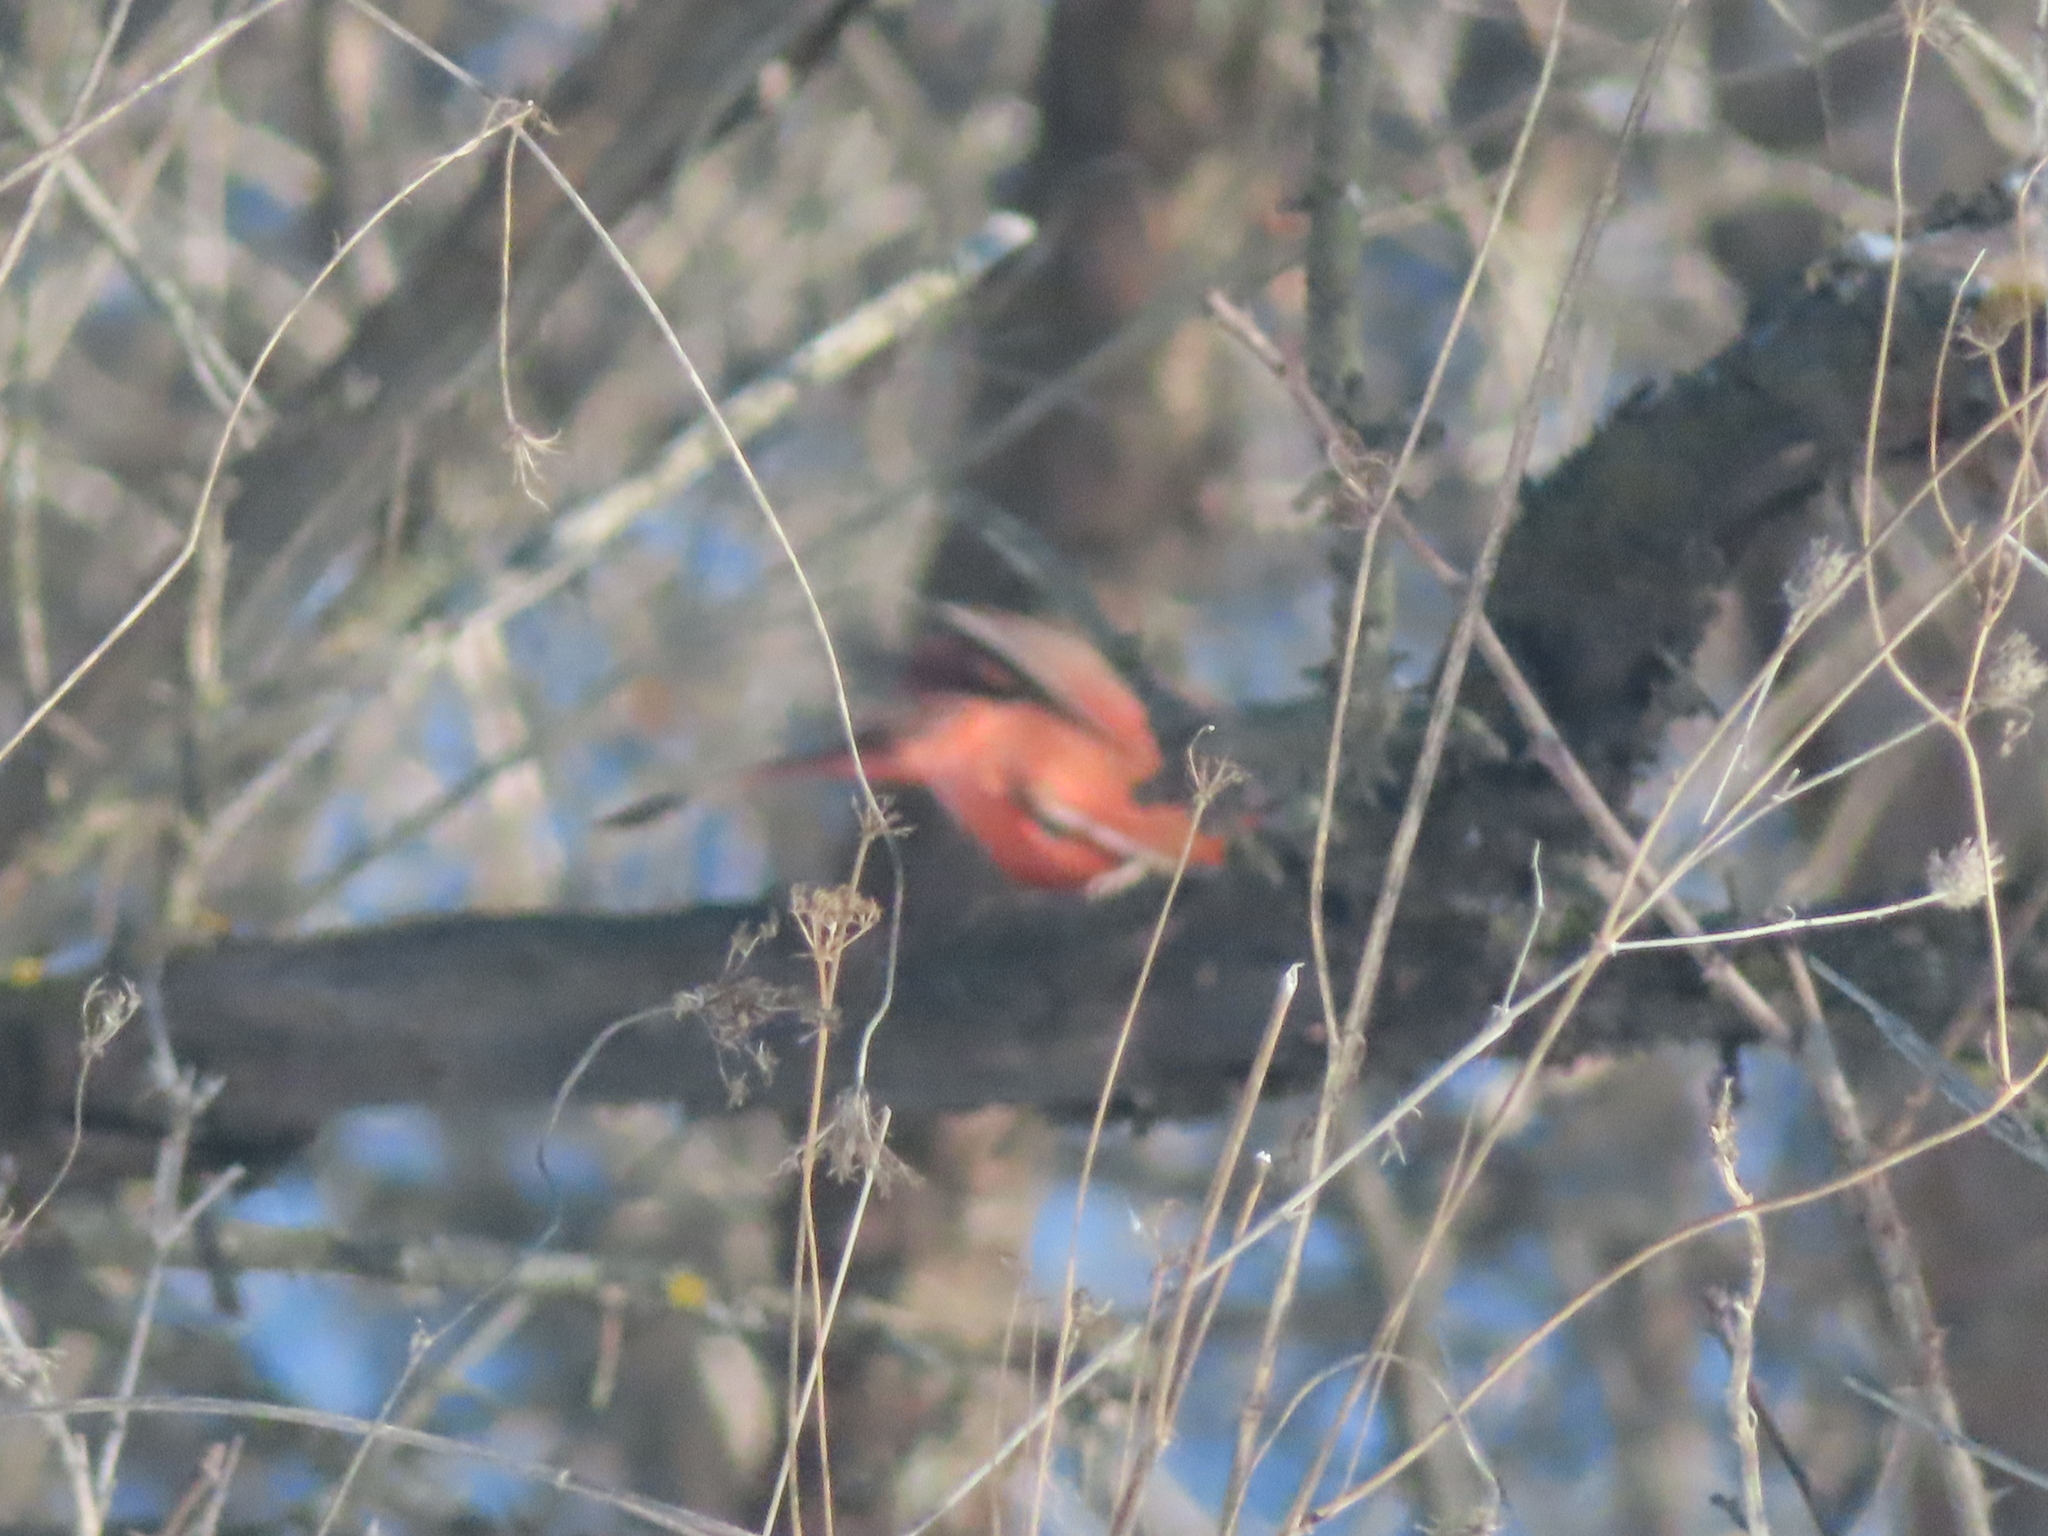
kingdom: Animalia
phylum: Chordata
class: Aves
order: Passeriformes
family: Cardinalidae
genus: Cardinalis
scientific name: Cardinalis cardinalis
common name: Northern cardinal
